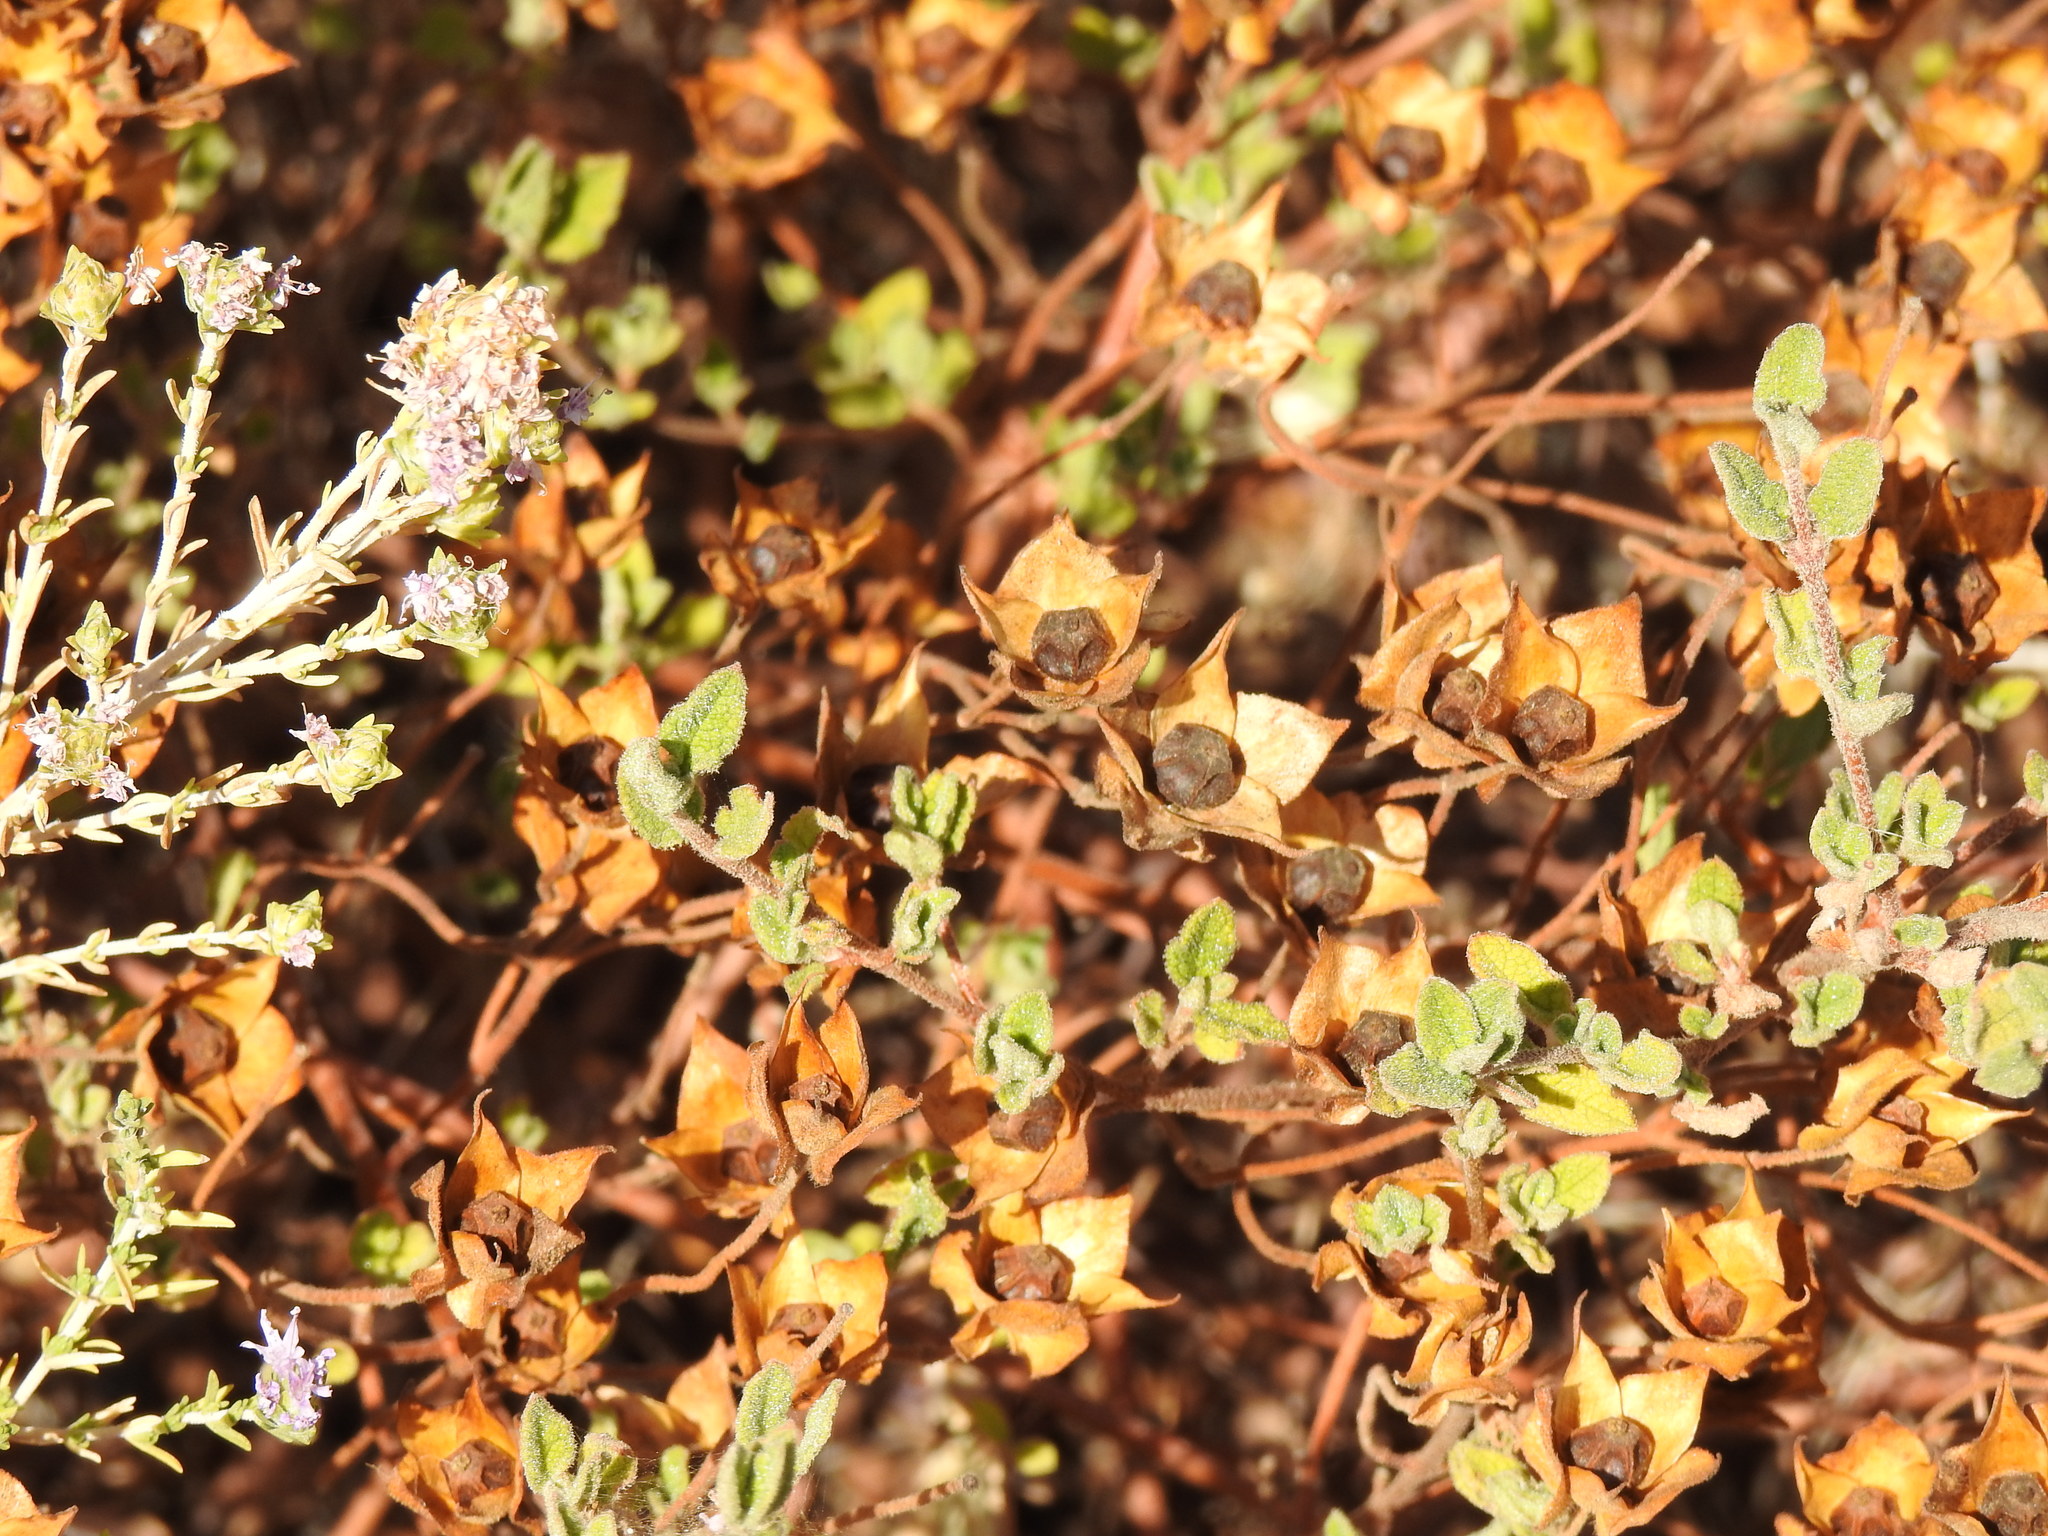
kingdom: Plantae
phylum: Tracheophyta
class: Magnoliopsida
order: Malvales
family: Cistaceae
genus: Cistus
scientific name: Cistus salviifolius
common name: Salvia cistus
